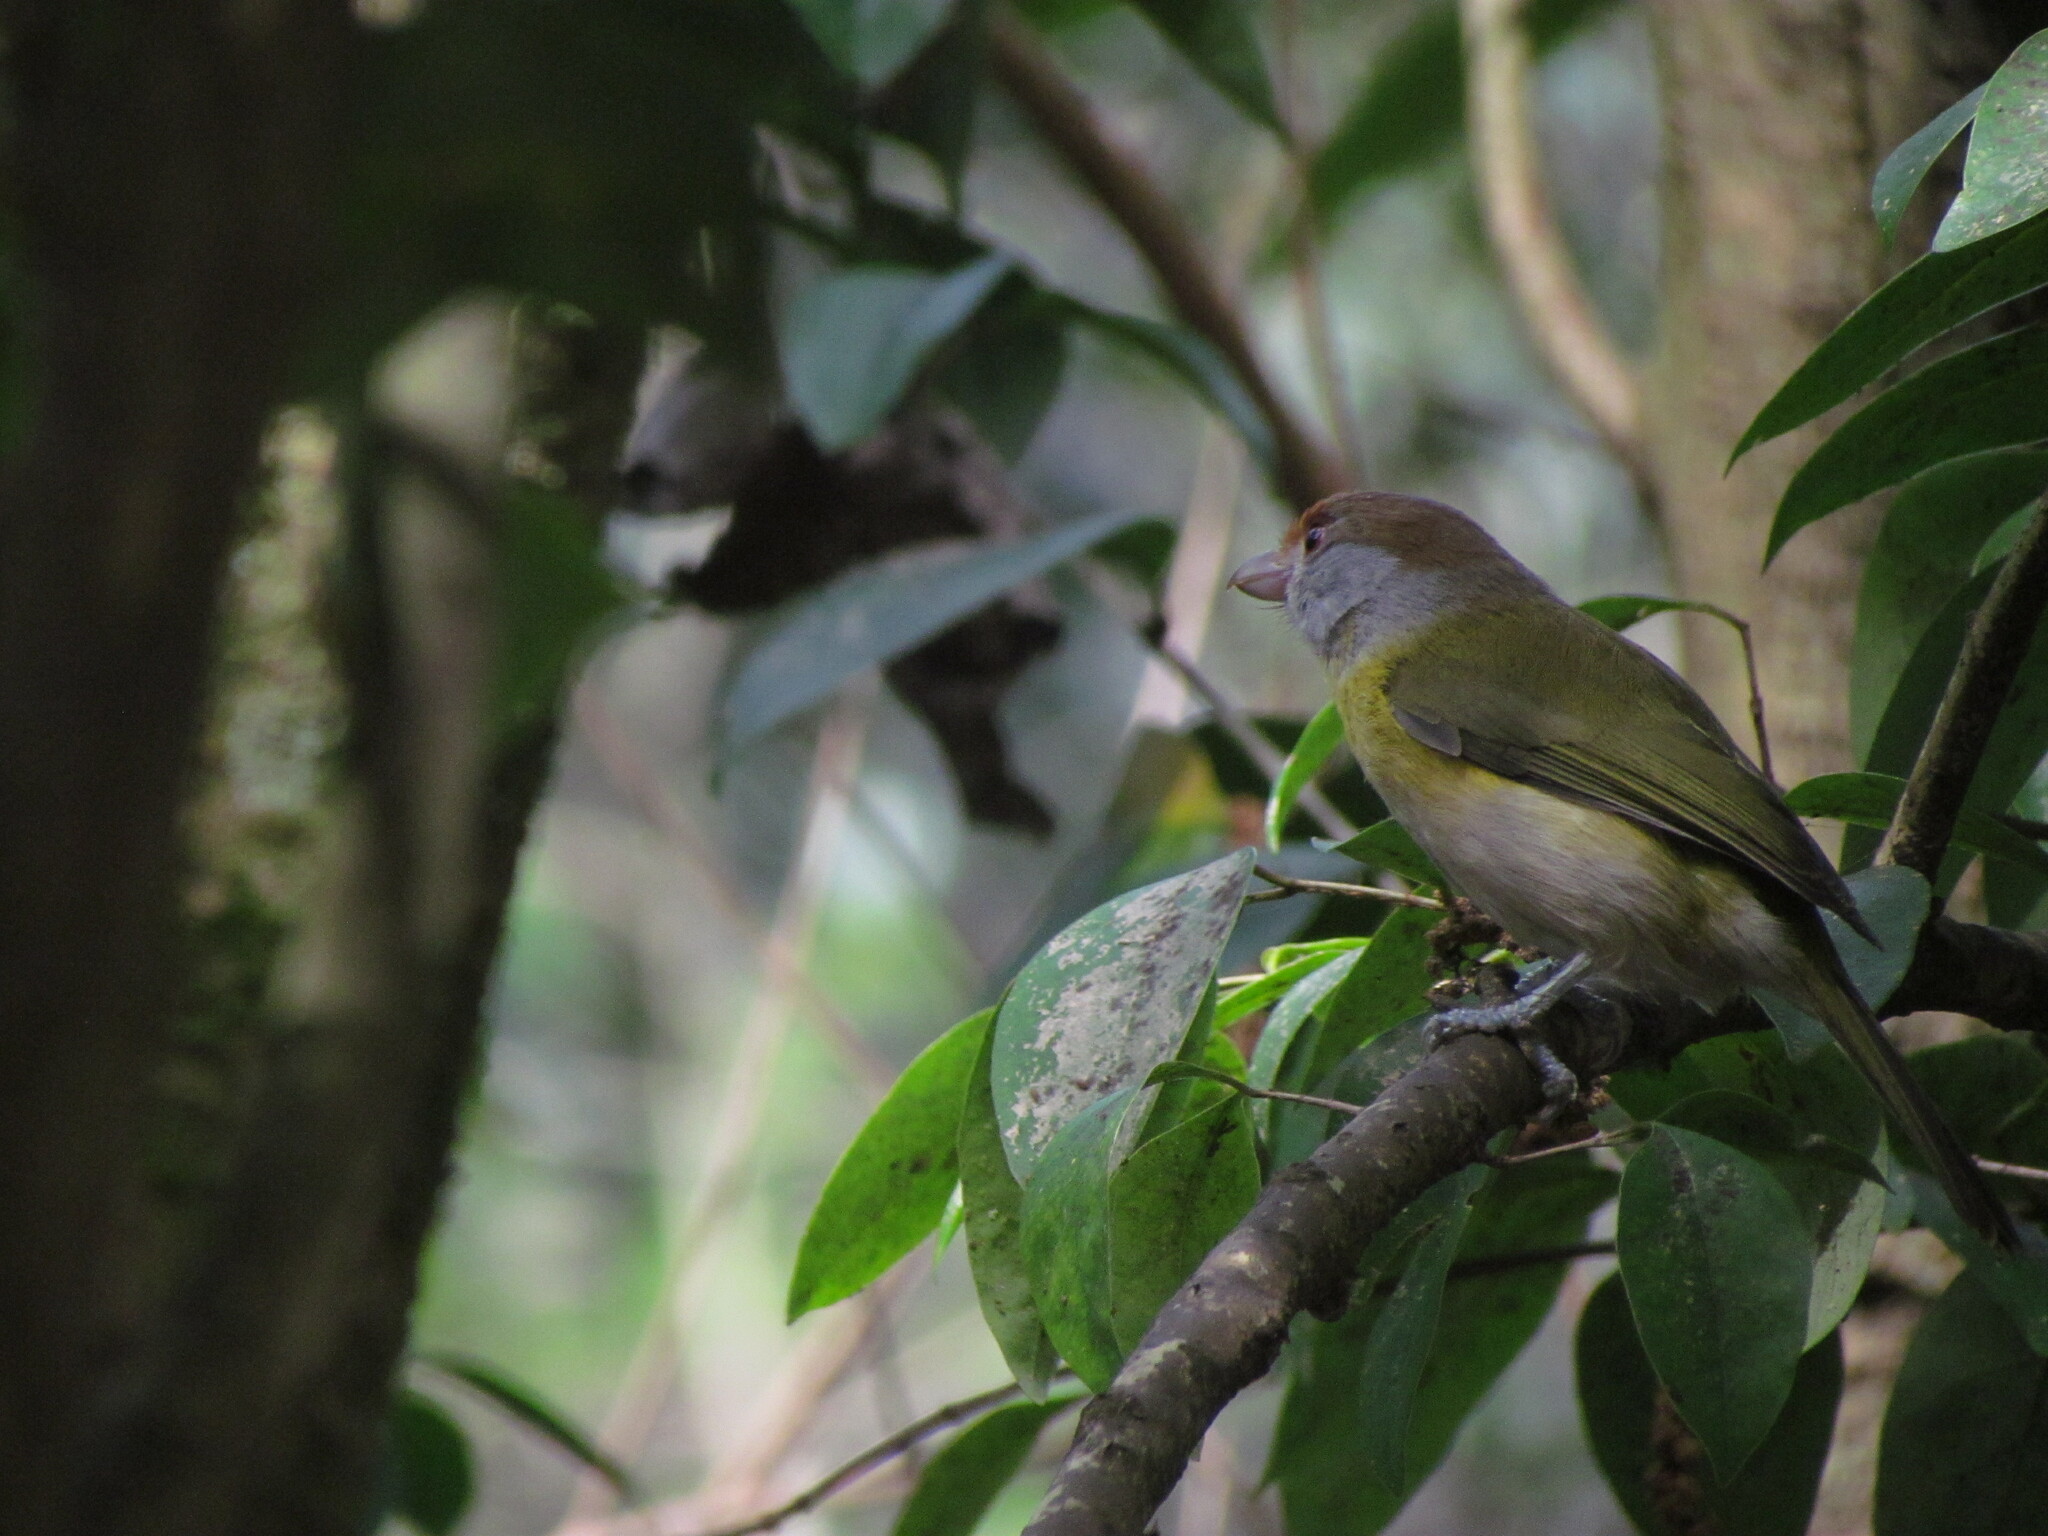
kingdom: Animalia
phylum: Chordata
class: Aves
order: Passeriformes
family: Vireonidae
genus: Cyclarhis
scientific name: Cyclarhis gujanensis
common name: Rufous-browed peppershrike
